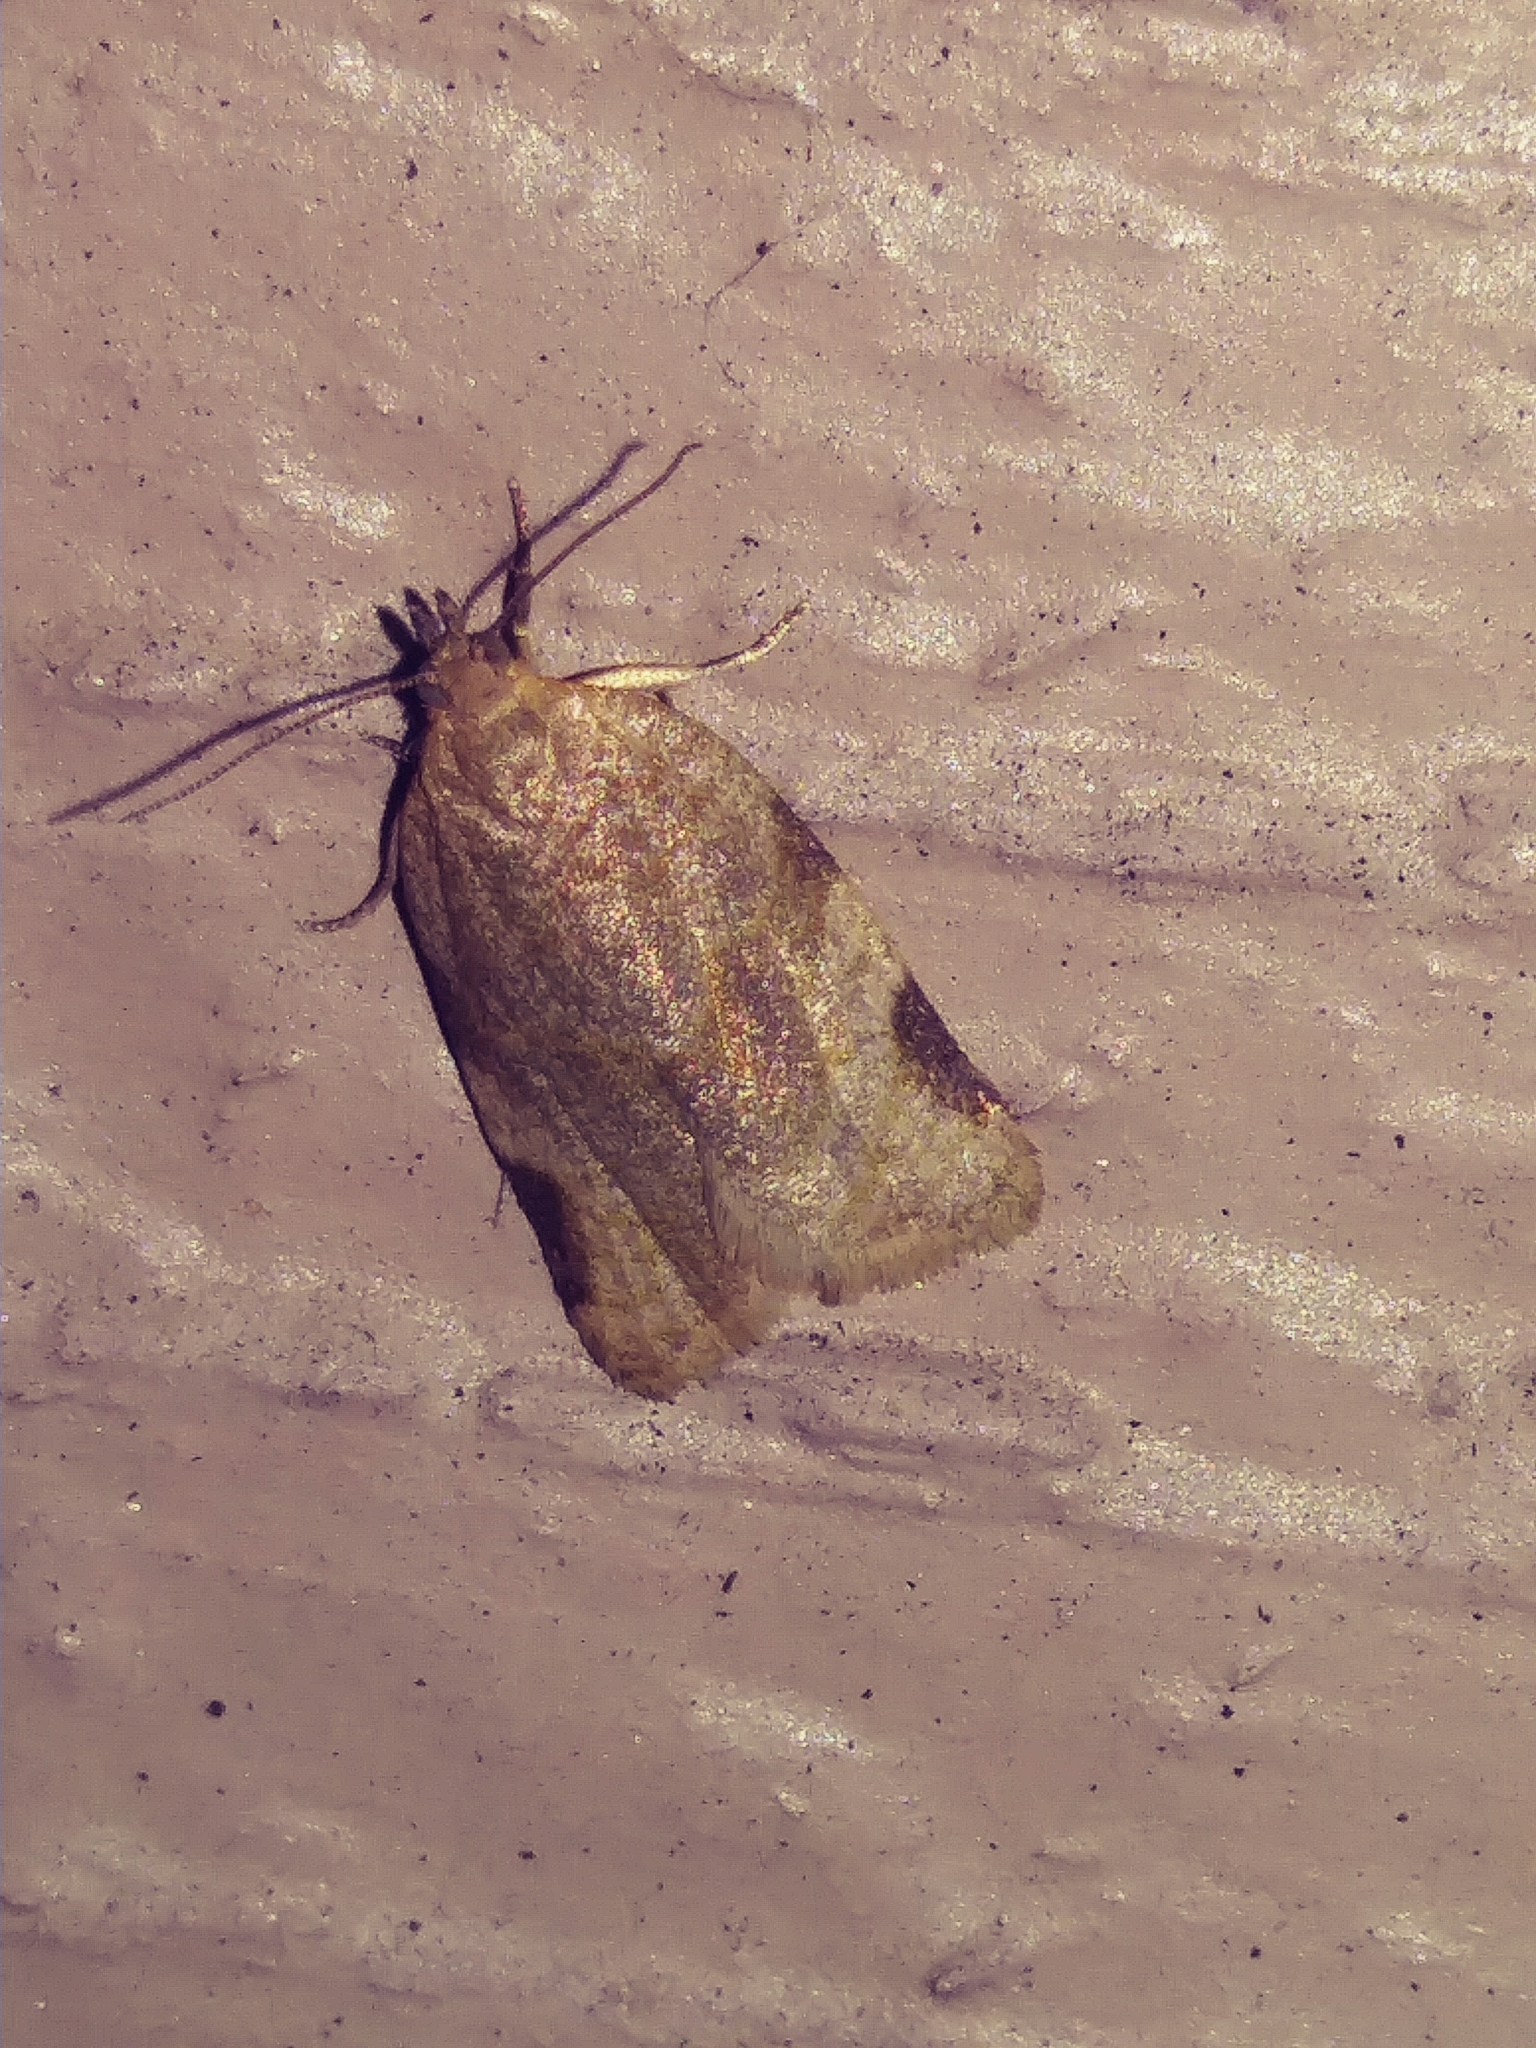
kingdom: Animalia
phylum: Arthropoda
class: Insecta
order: Lepidoptera
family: Tortricidae
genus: Clepsis
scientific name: Clepsis virescana
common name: Greenish apple moth
